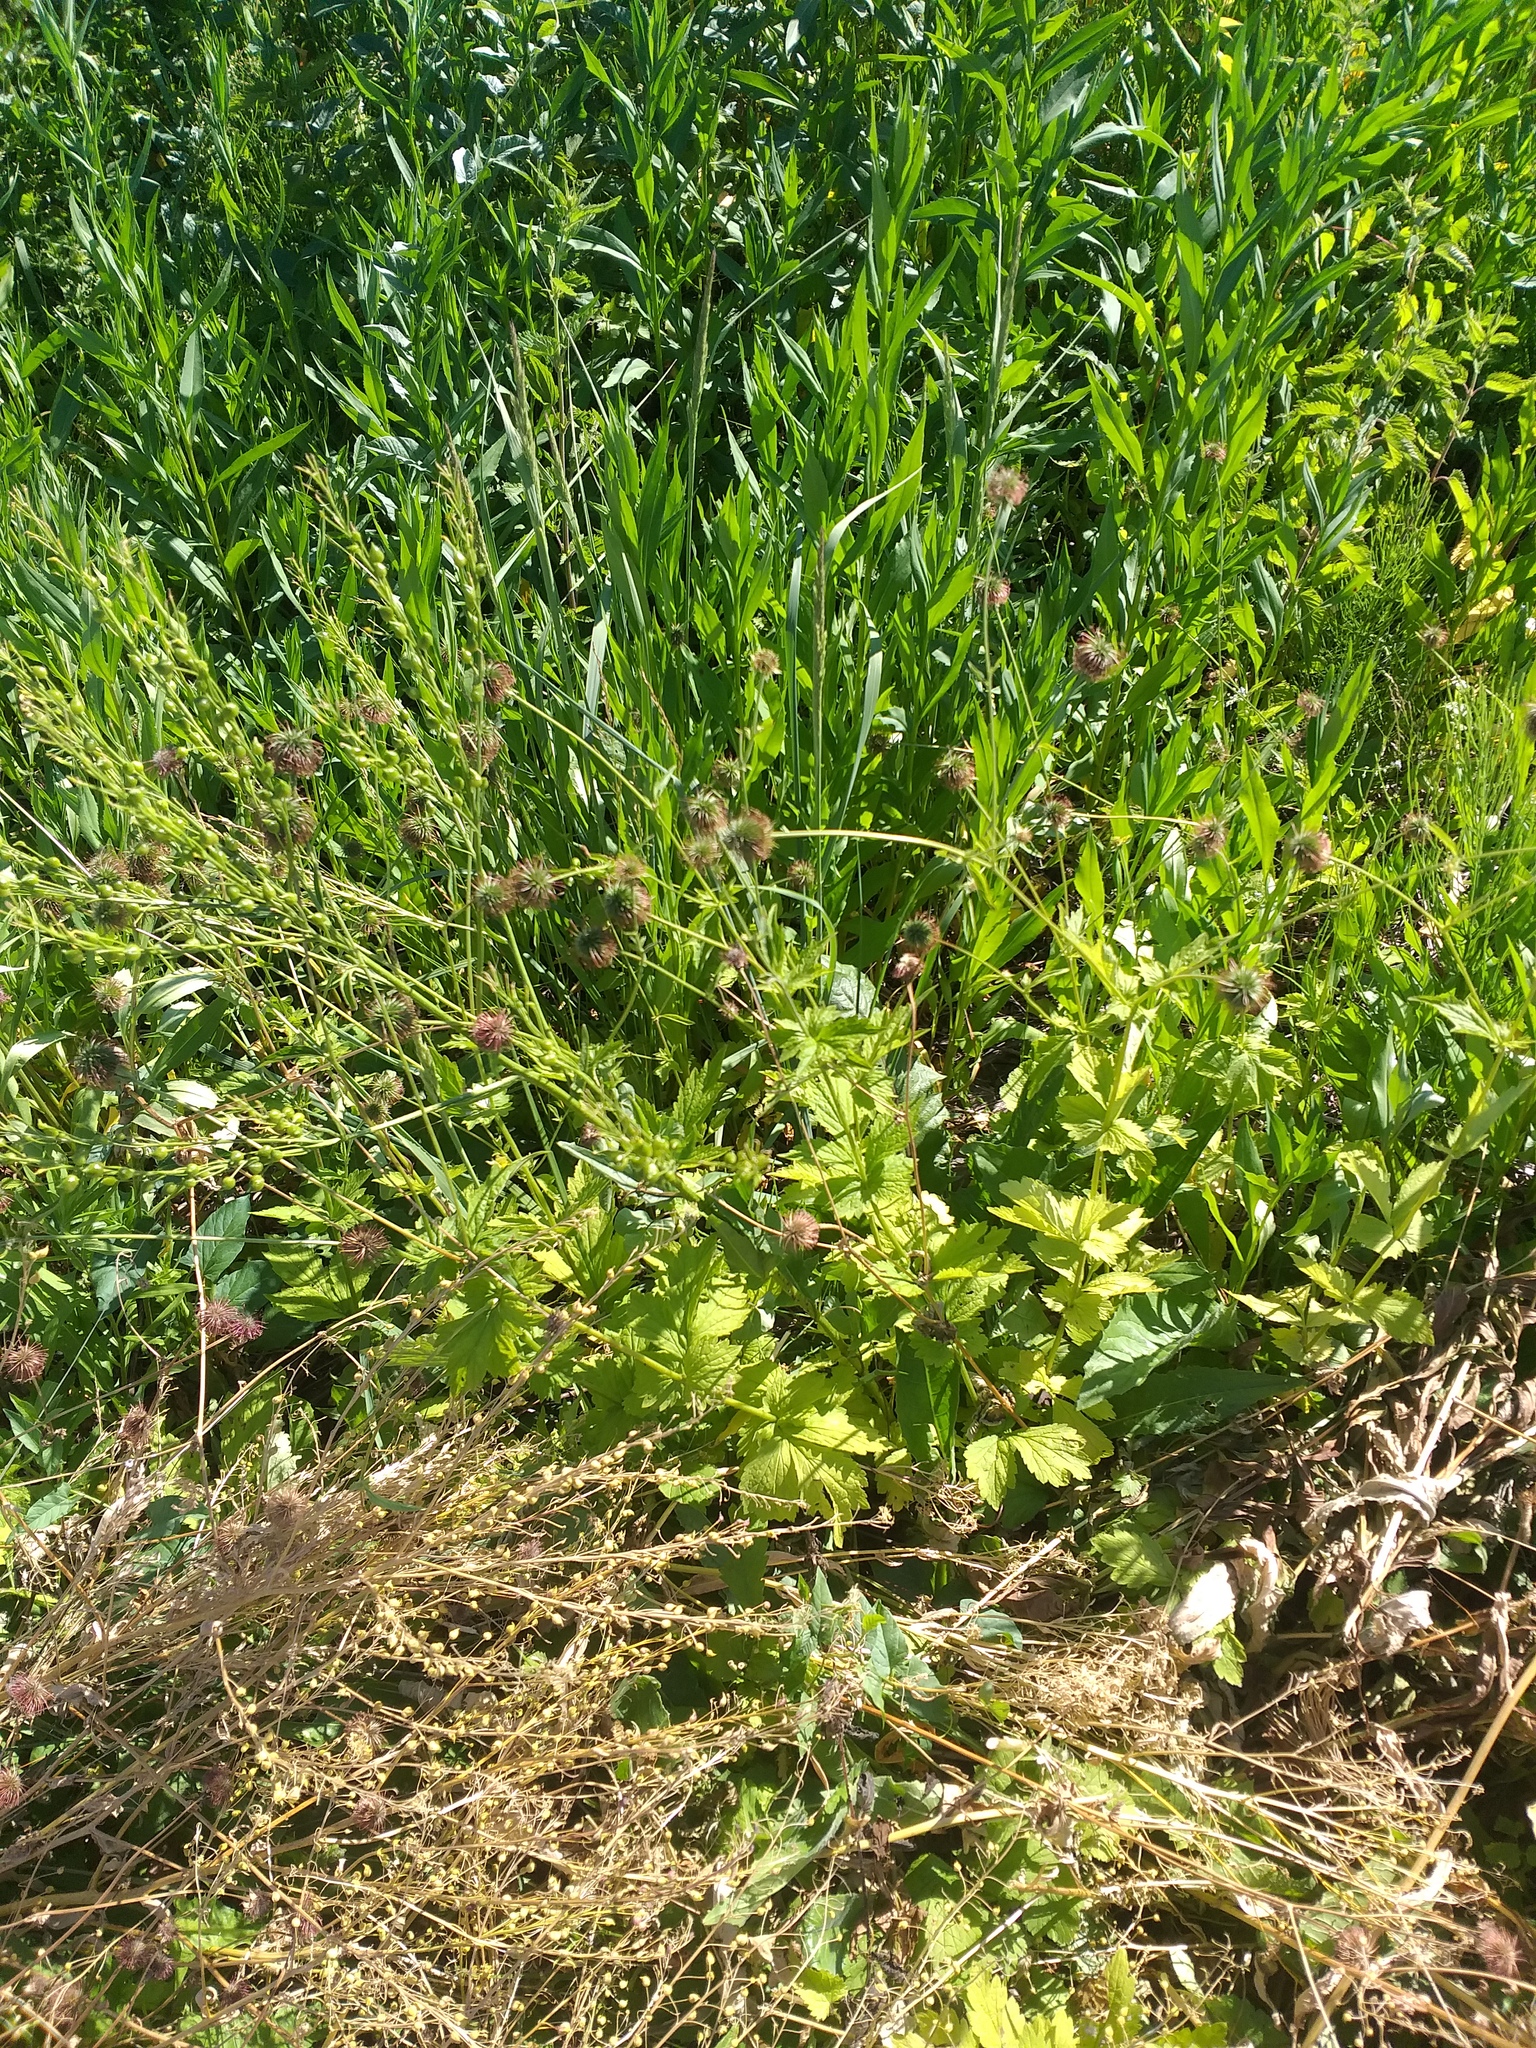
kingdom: Plantae
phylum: Tracheophyta
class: Magnoliopsida
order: Rosales
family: Rosaceae
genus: Geum
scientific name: Geum urbanum
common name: Wood avens
